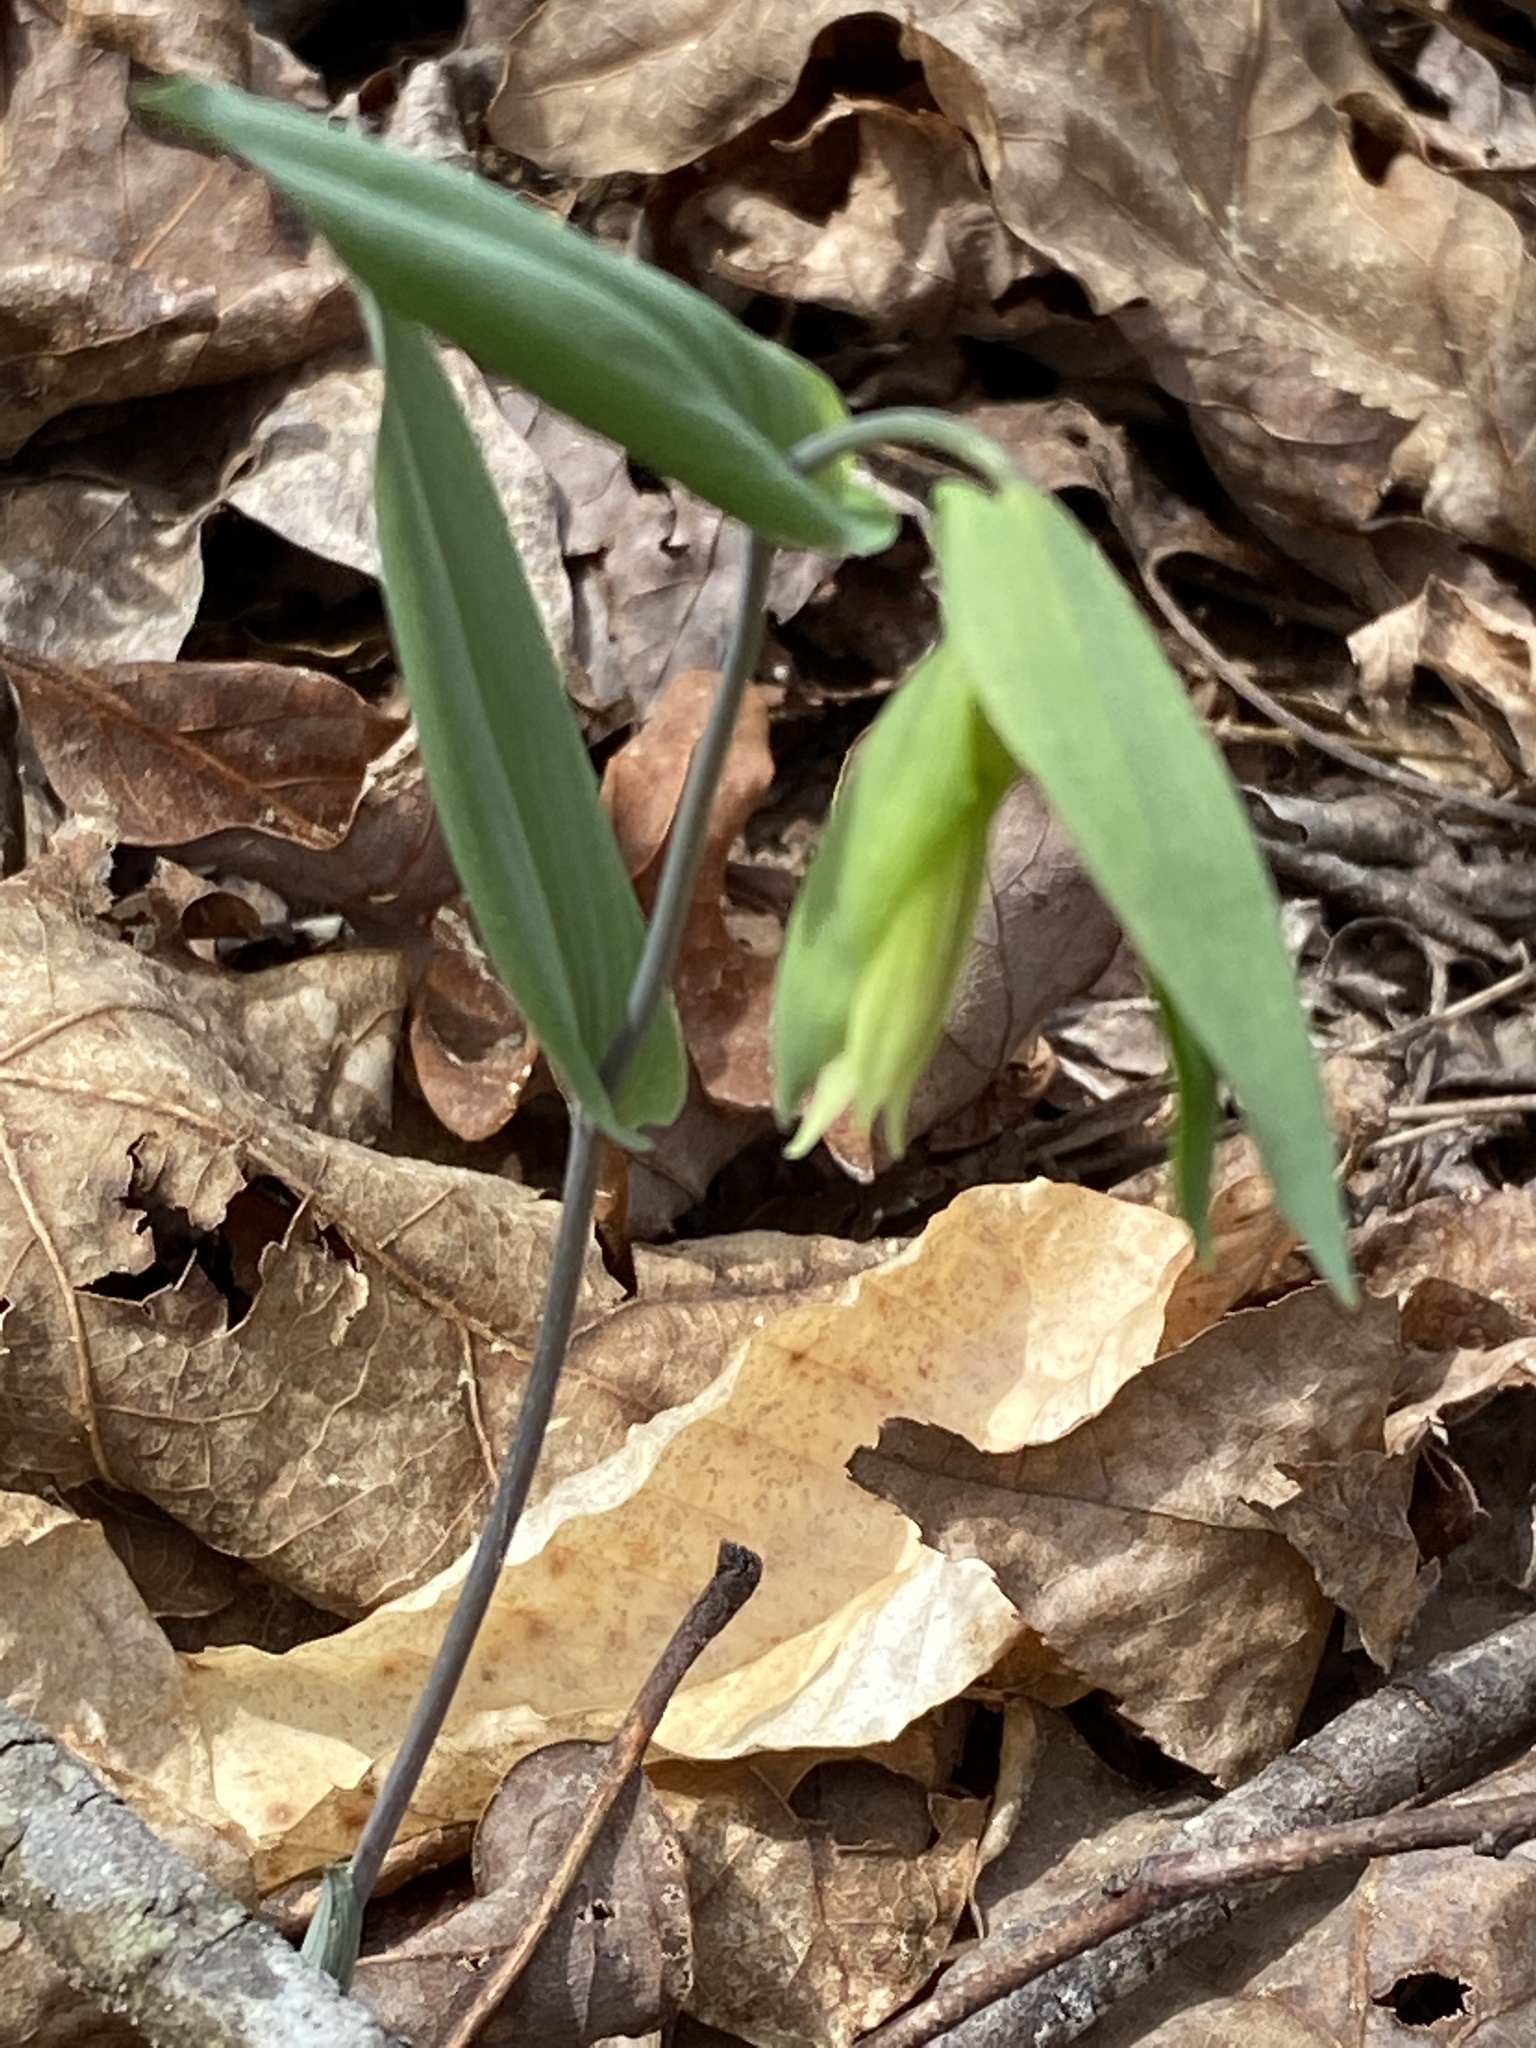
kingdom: Plantae
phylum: Tracheophyta
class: Liliopsida
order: Liliales
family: Colchicaceae
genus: Uvularia
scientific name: Uvularia perfoliata
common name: Perfoliate bellwort
